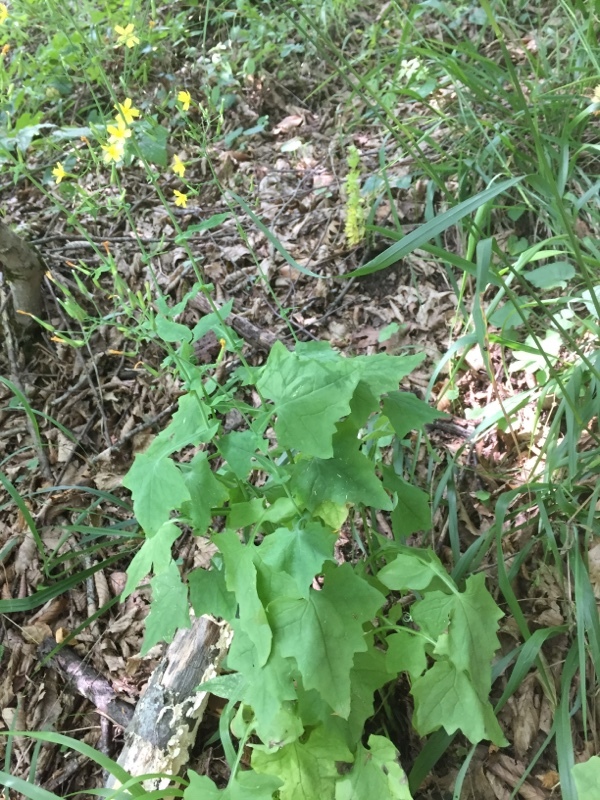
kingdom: Plantae
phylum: Tracheophyta
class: Magnoliopsida
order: Asterales
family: Asteraceae
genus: Mycelis
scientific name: Mycelis muralis
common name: Wall lettuce
